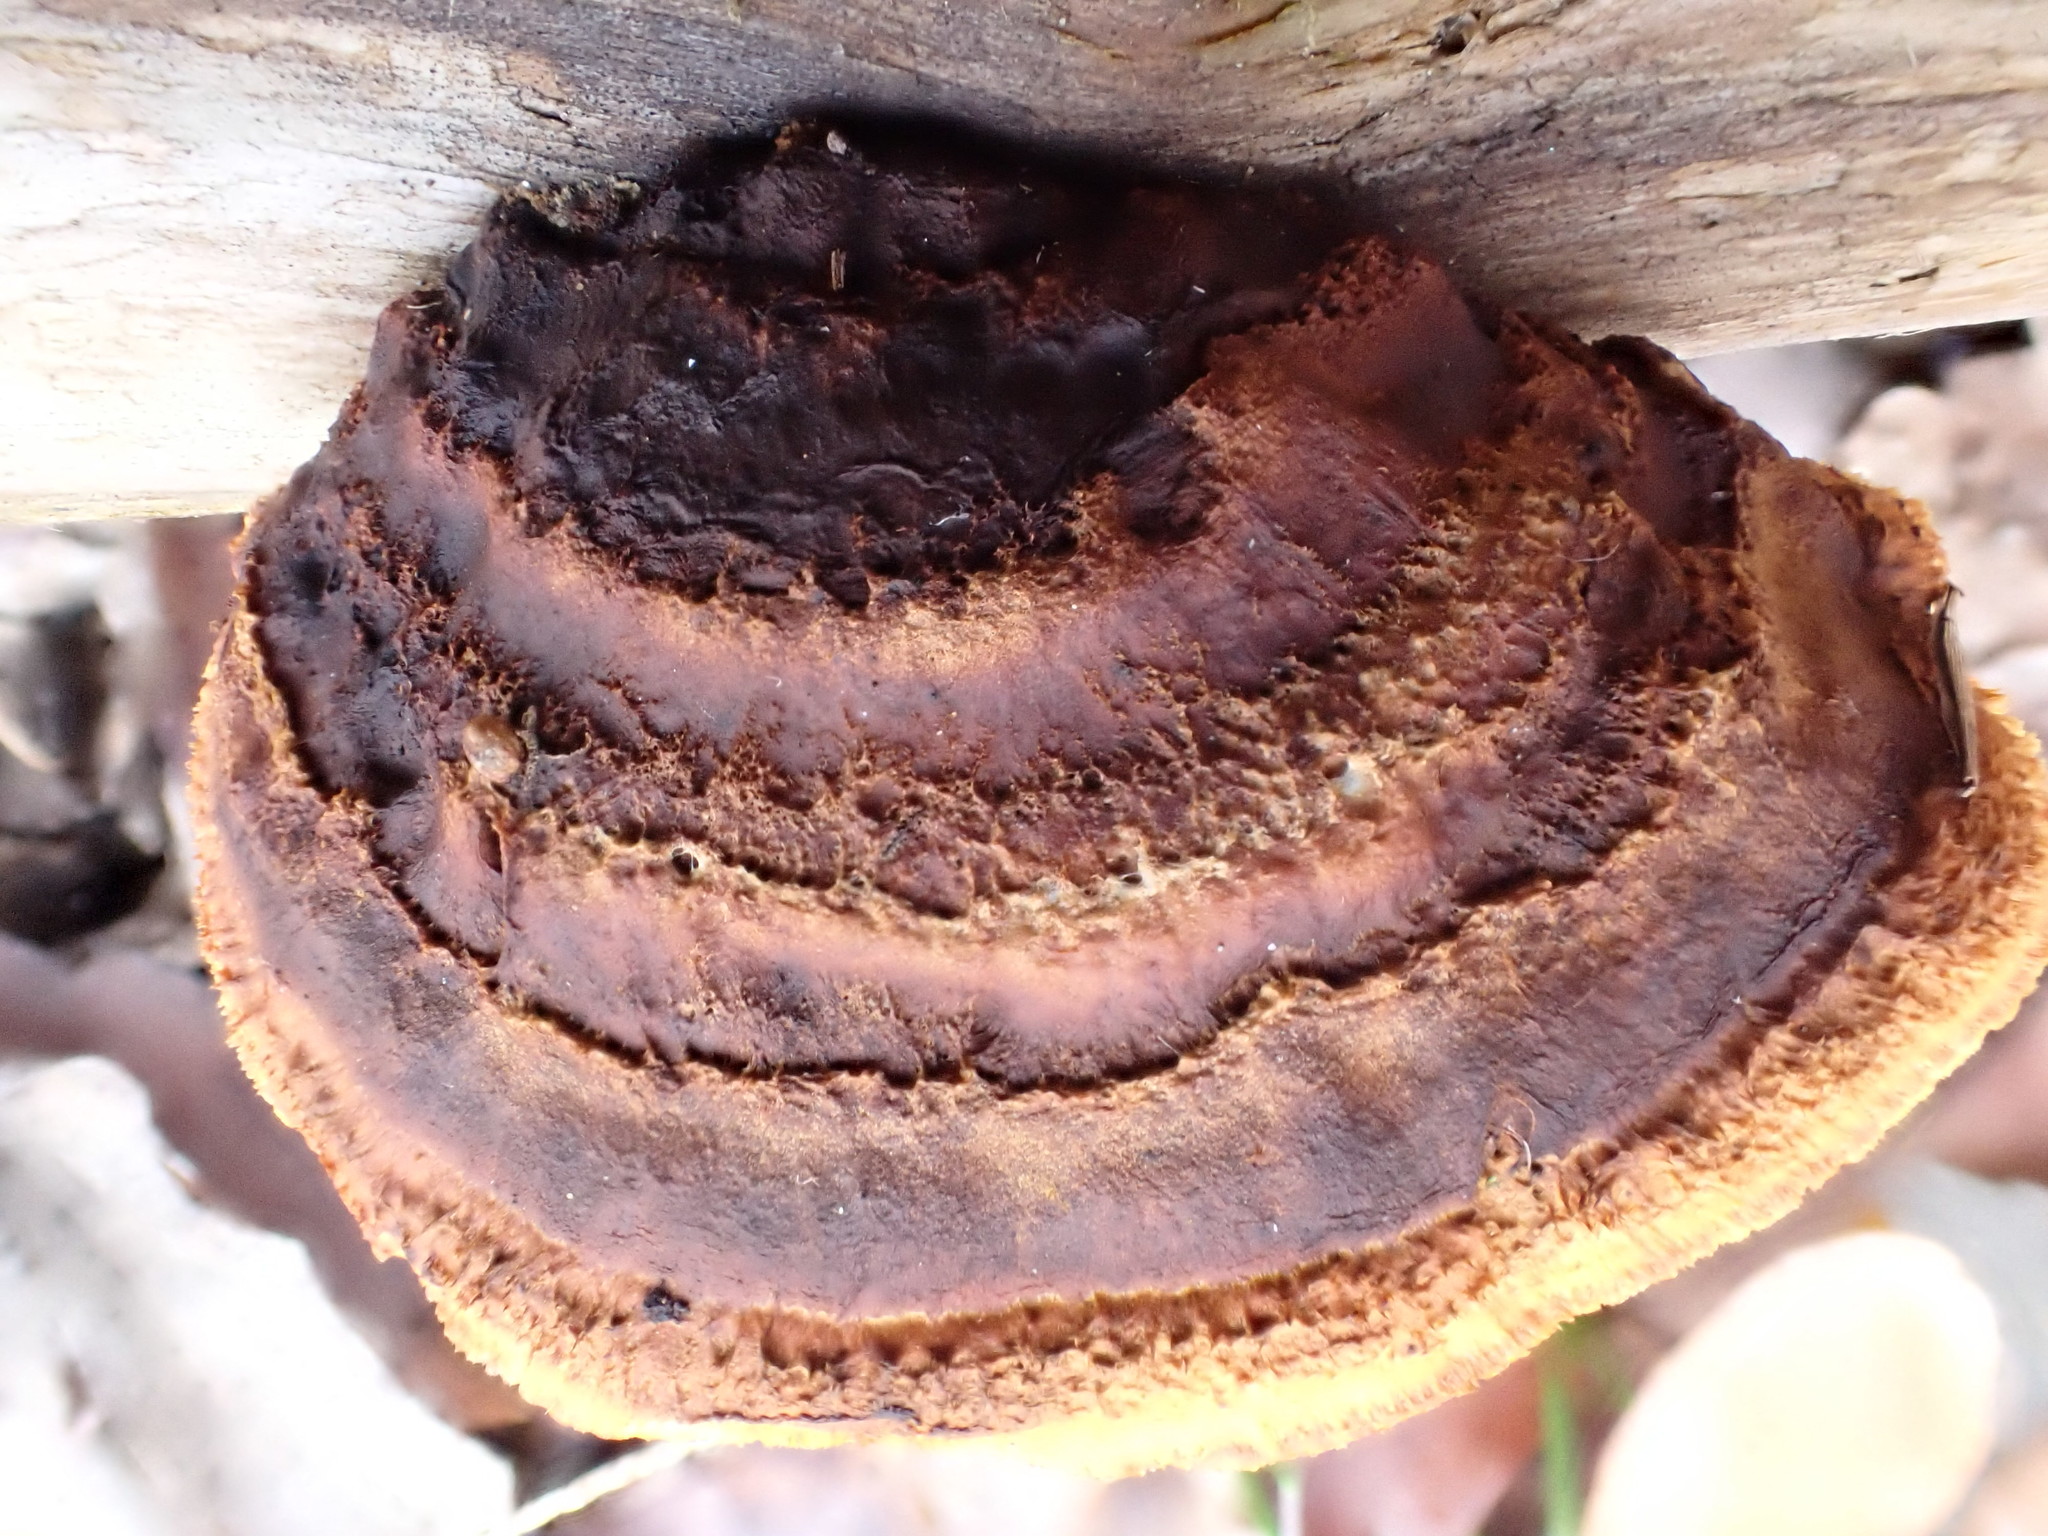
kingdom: Fungi
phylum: Basidiomycota
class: Agaricomycetes
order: Gloeophyllales
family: Gloeophyllaceae
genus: Gloeophyllum
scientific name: Gloeophyllum sepiarium
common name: Conifer mazegill
